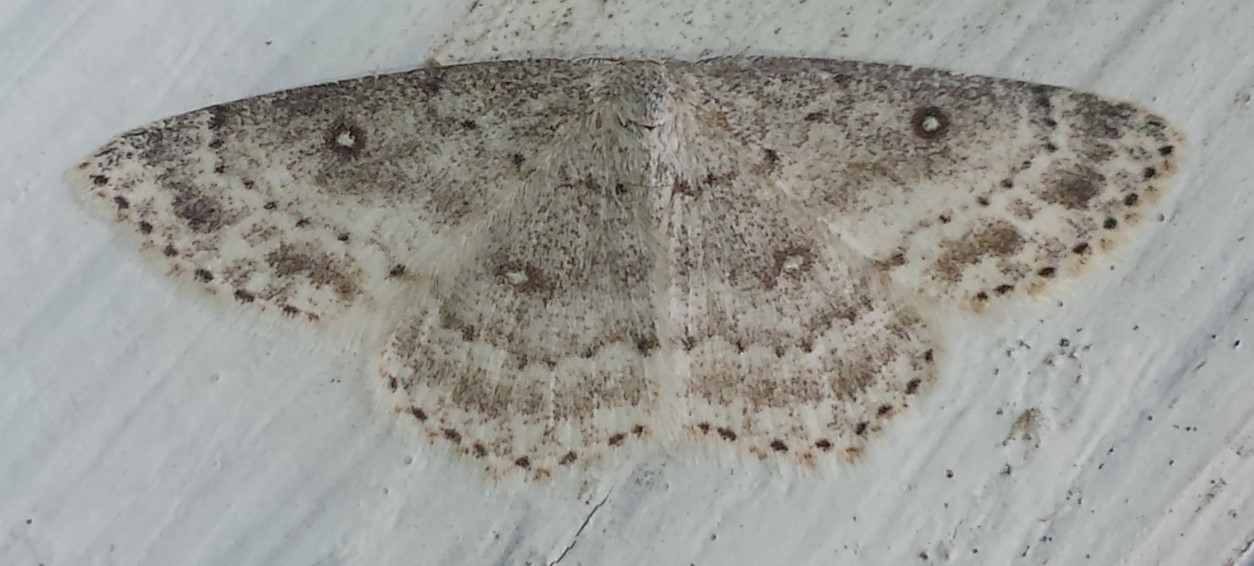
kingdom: Animalia
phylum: Arthropoda
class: Insecta
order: Lepidoptera
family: Geometridae
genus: Cyclophora
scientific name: Cyclophora pendulinaria
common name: Sweet fern geometer
